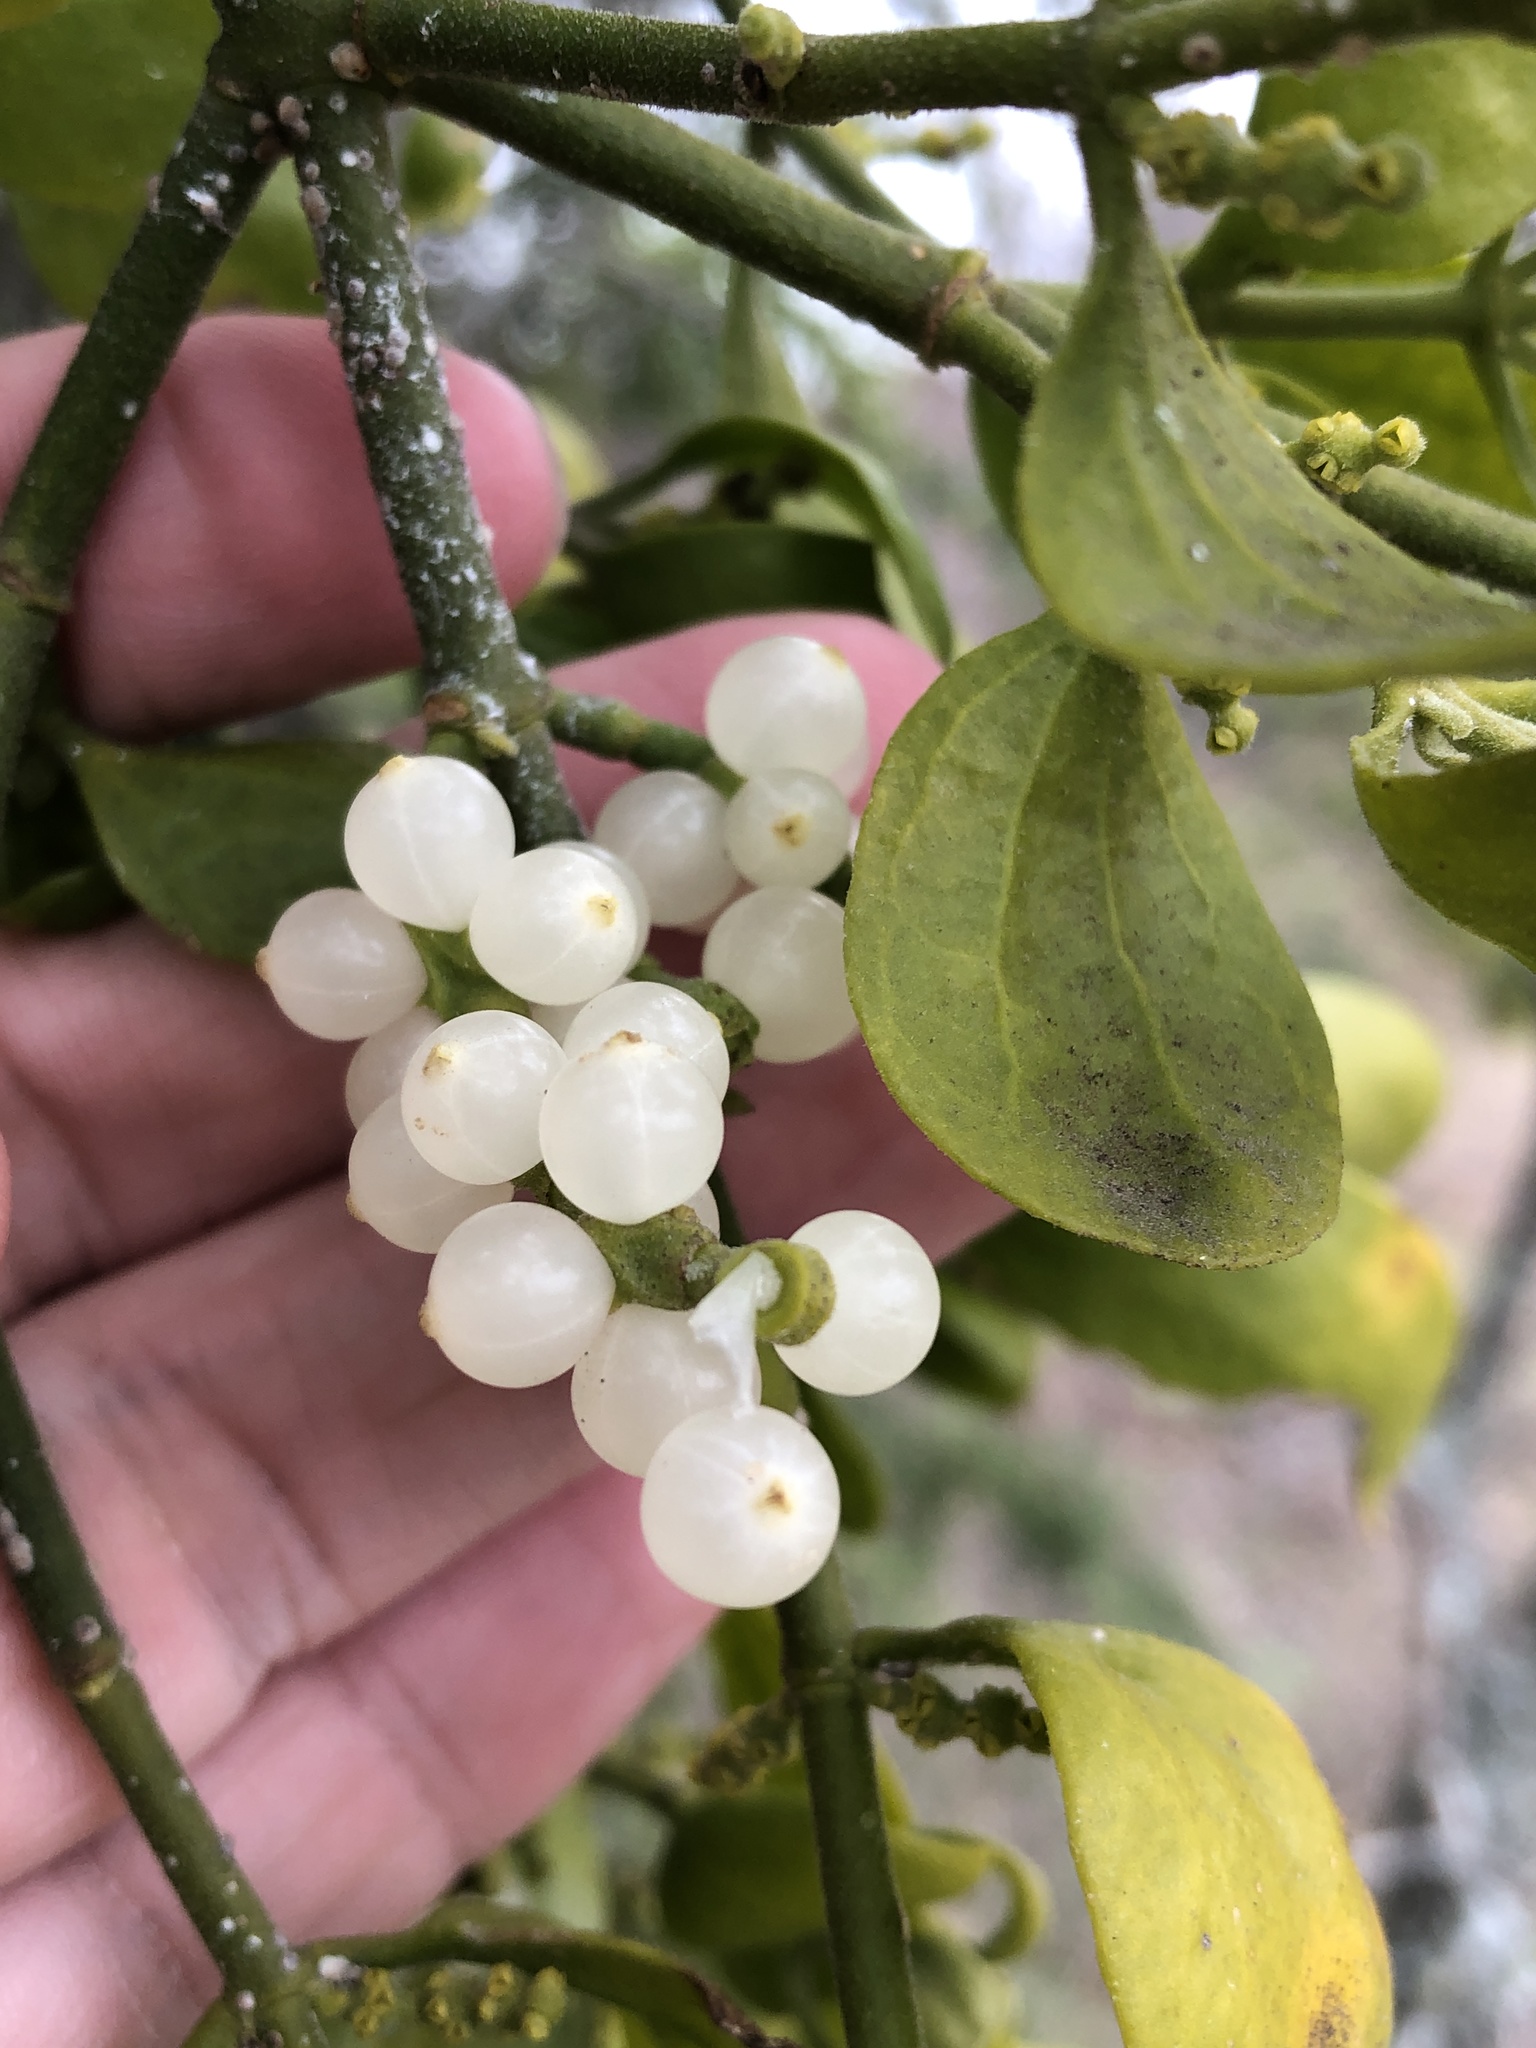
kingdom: Plantae
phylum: Tracheophyta
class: Magnoliopsida
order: Santalales
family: Viscaceae
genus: Phoradendron
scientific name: Phoradendron leucarpum
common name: Pacific mistletoe
